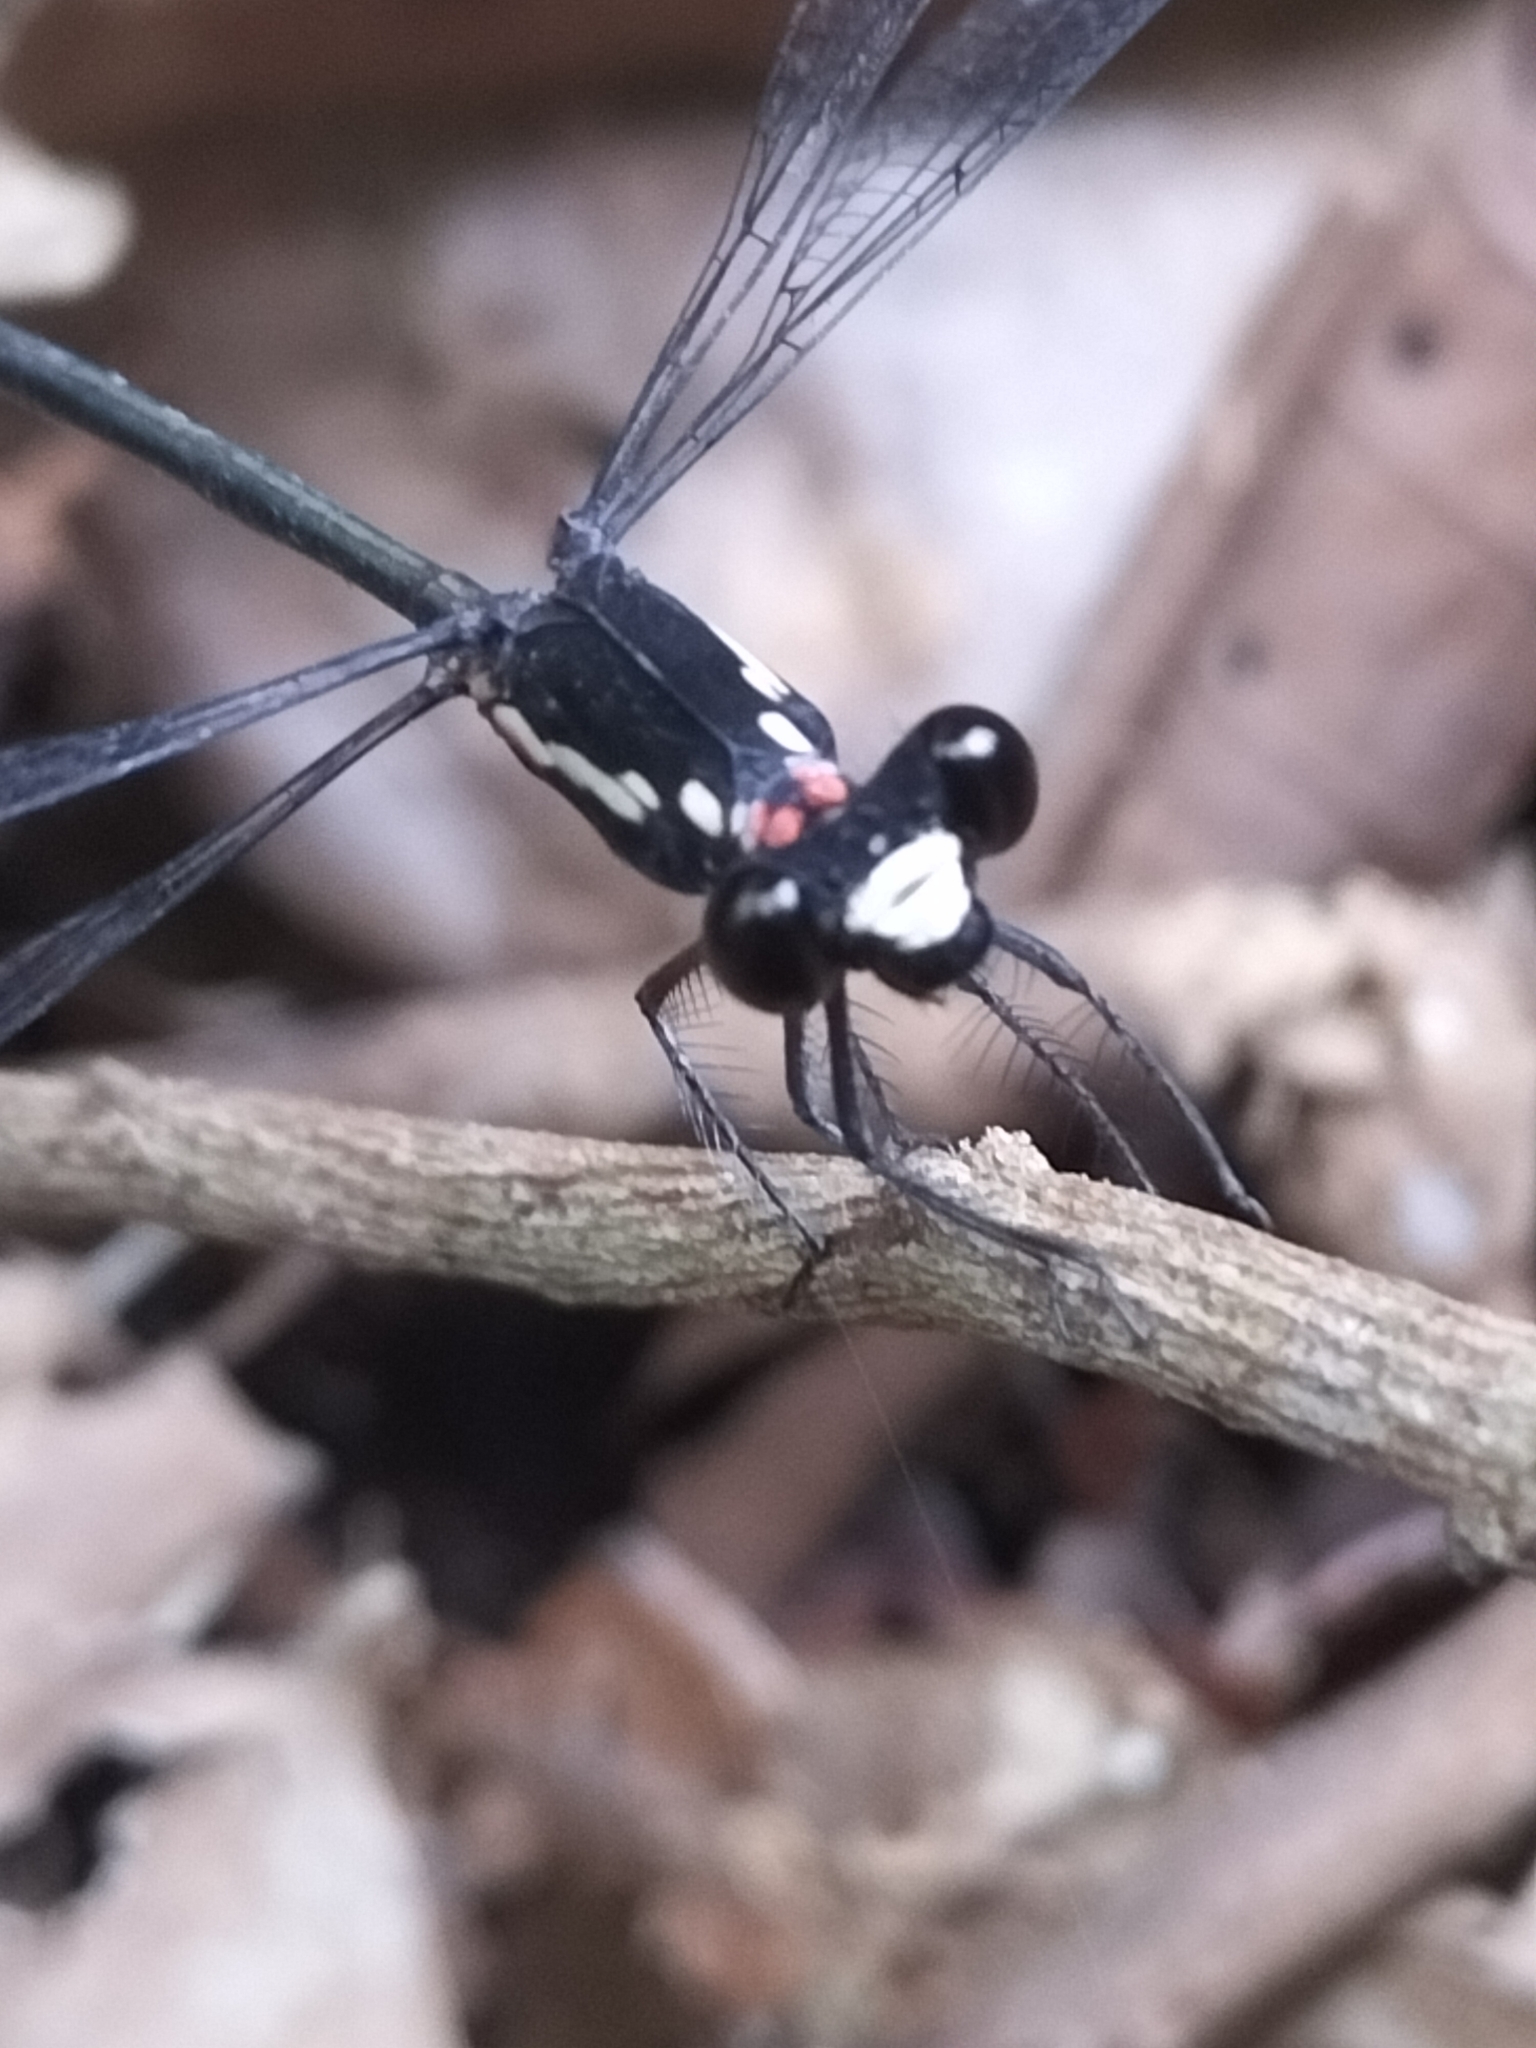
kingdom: Animalia
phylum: Arthropoda
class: Insecta
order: Odonata
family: Argiolestidae
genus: Podopteryx
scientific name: Podopteryx selysi
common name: Treehole flatwing
